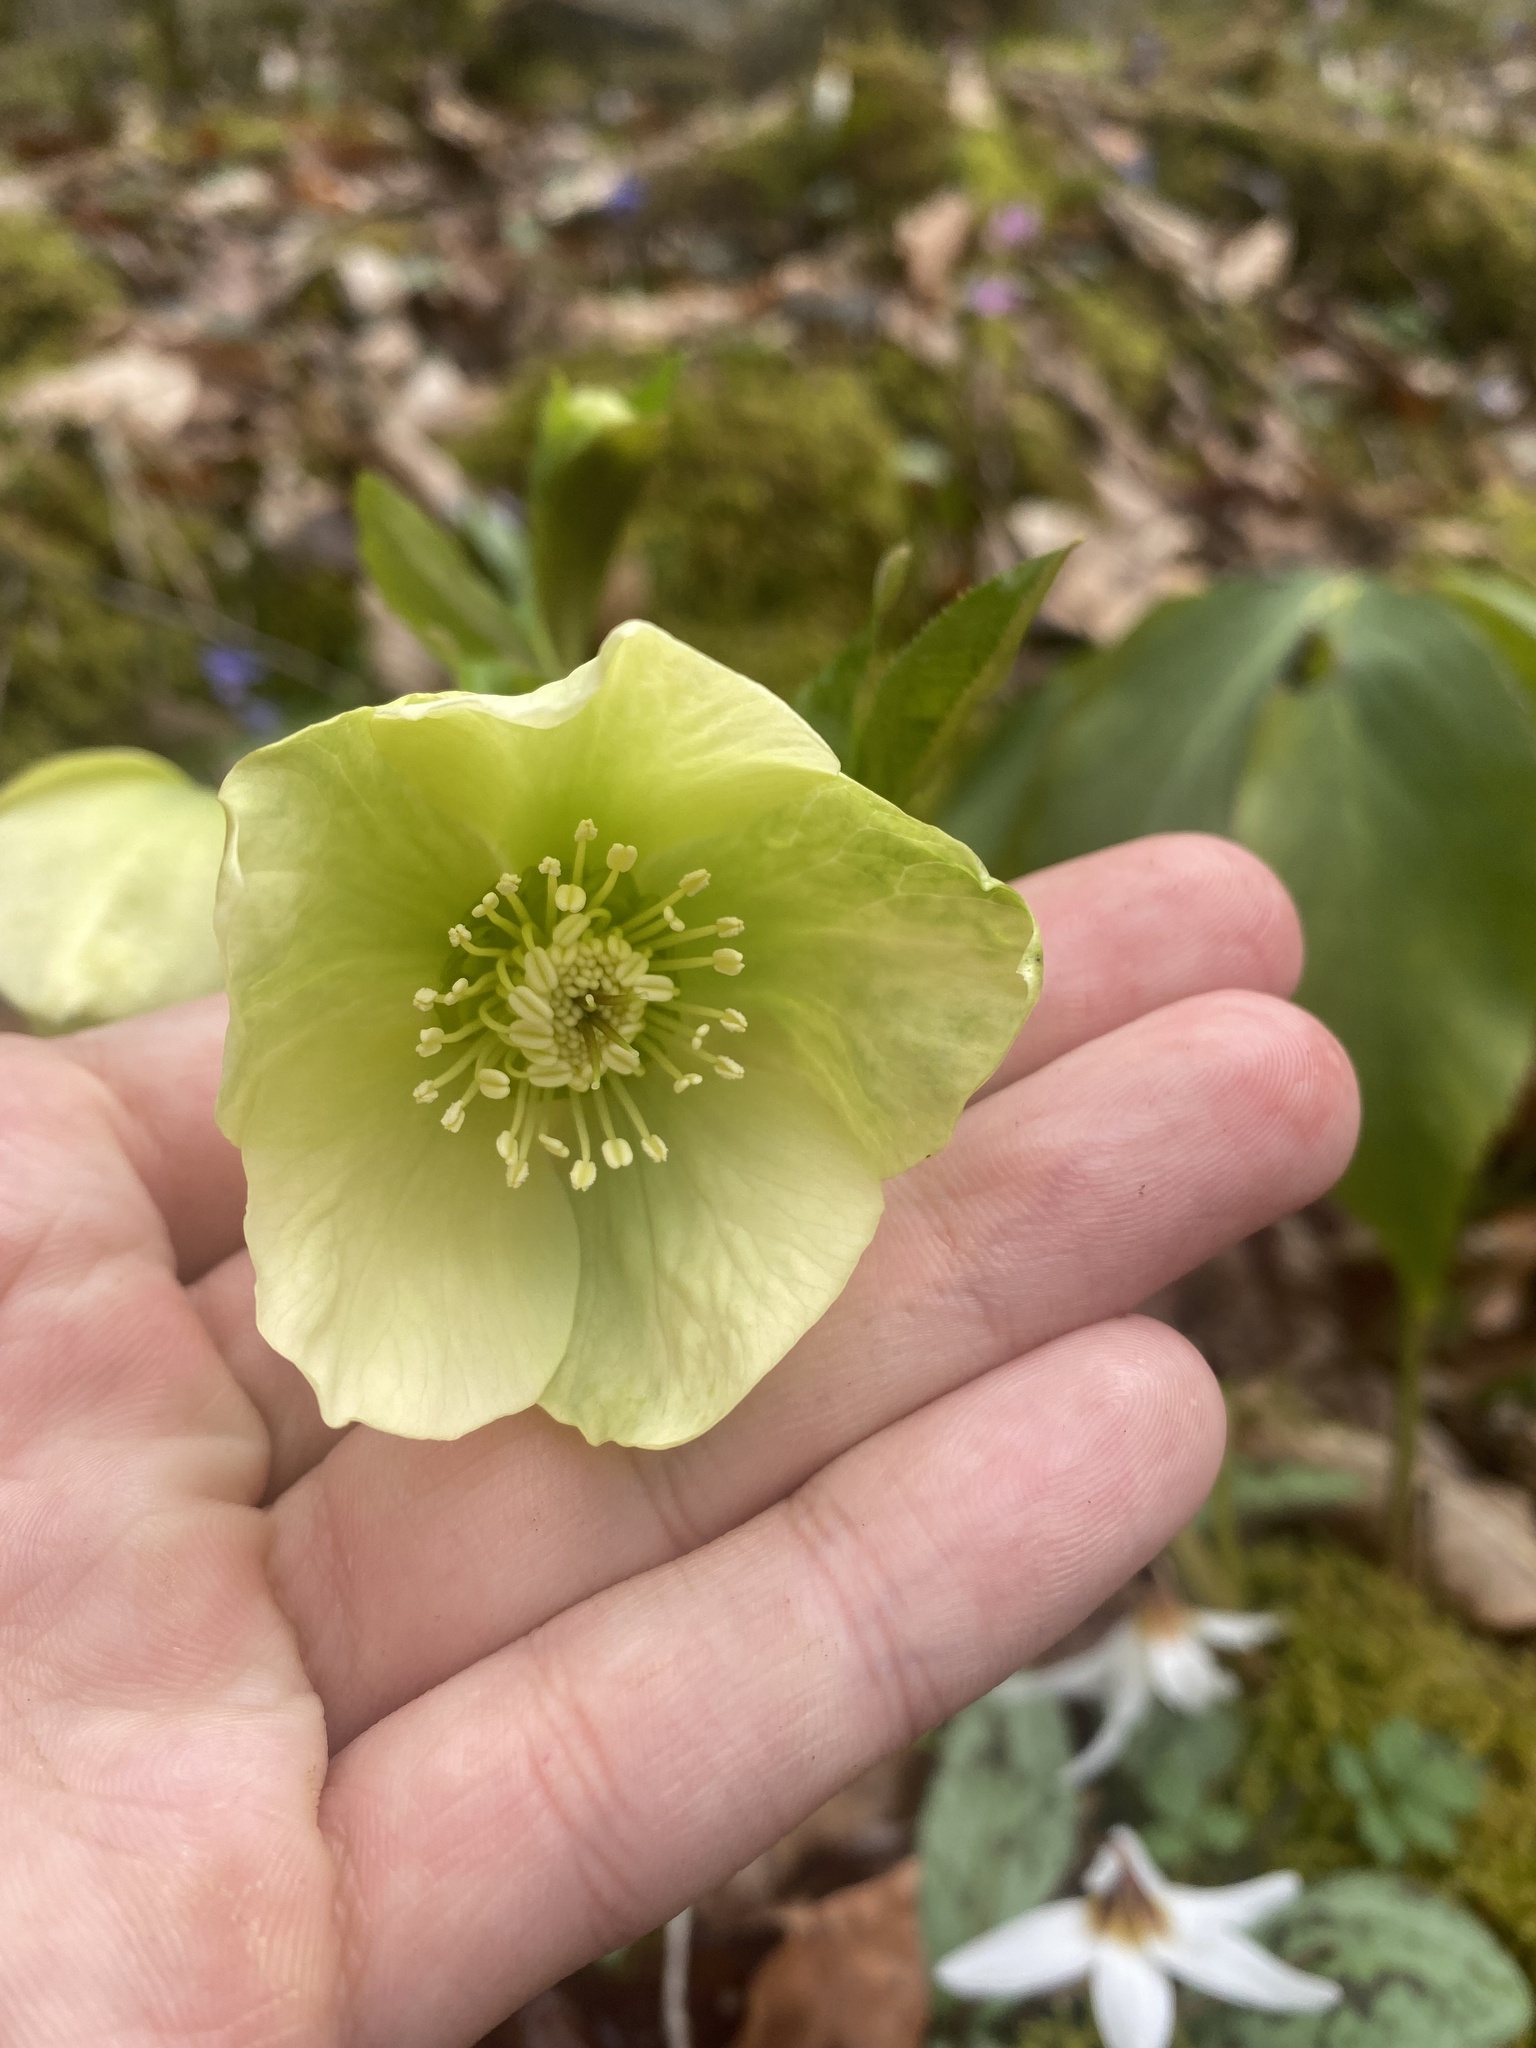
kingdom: Plantae
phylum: Tracheophyta
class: Magnoliopsida
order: Ranunculales
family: Ranunculaceae
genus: Helleborus
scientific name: Helleborus orientalis
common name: Lenten-rose
